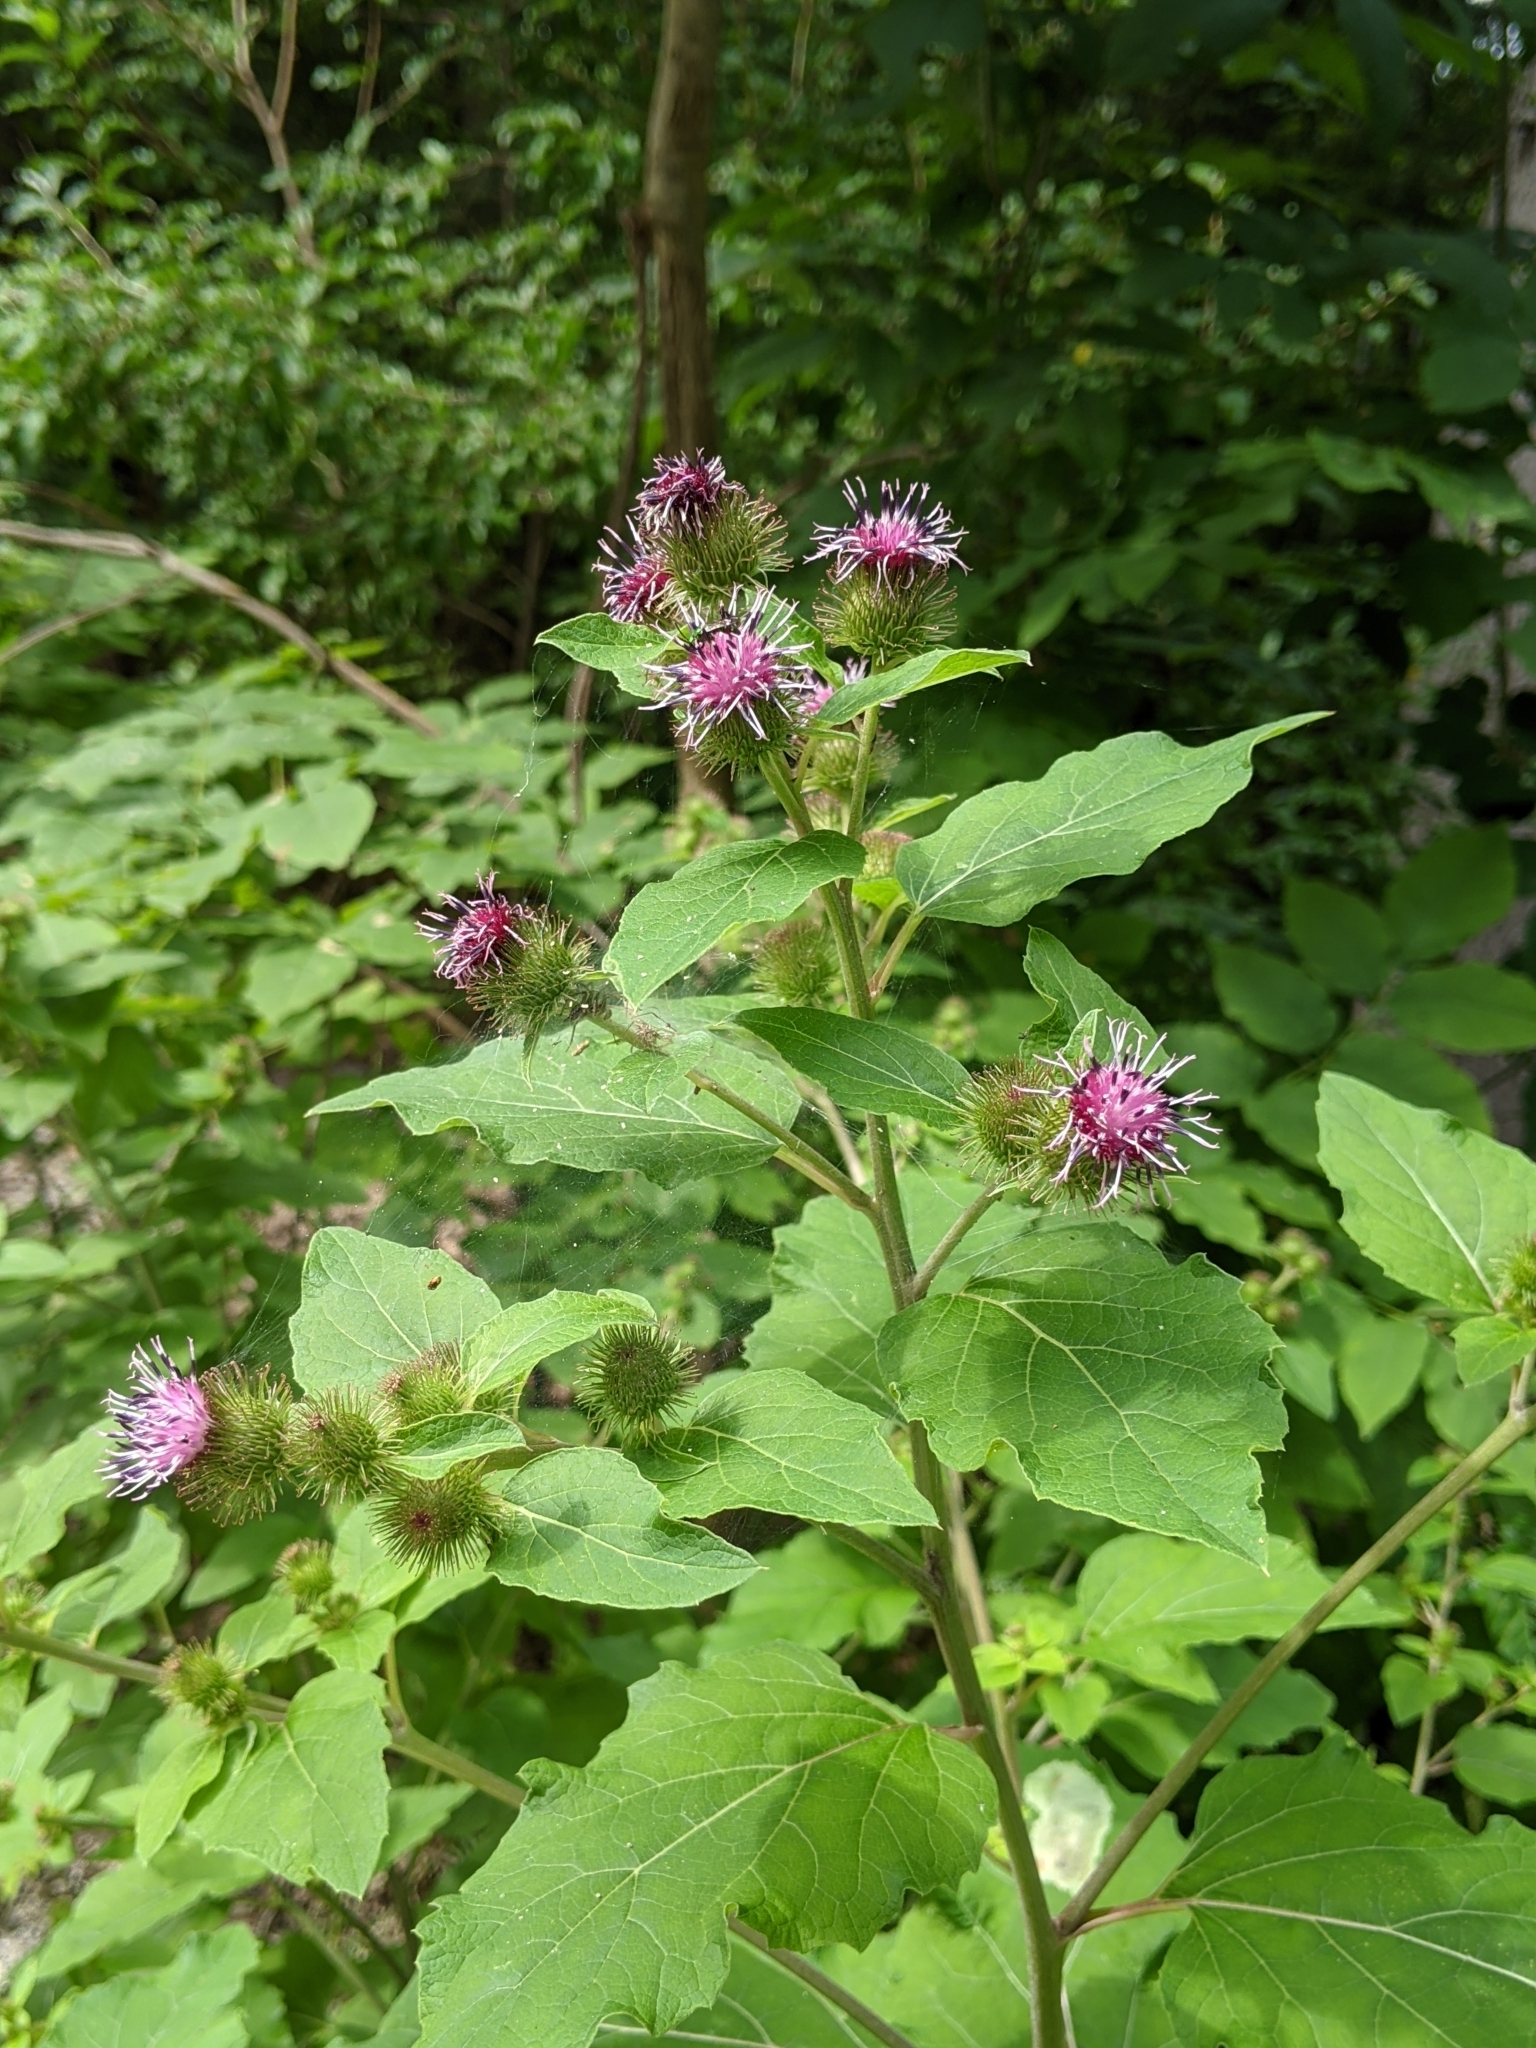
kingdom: Plantae
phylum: Tracheophyta
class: Magnoliopsida
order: Asterales
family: Asteraceae
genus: Arctium
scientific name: Arctium lappa
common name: Greater burdock
